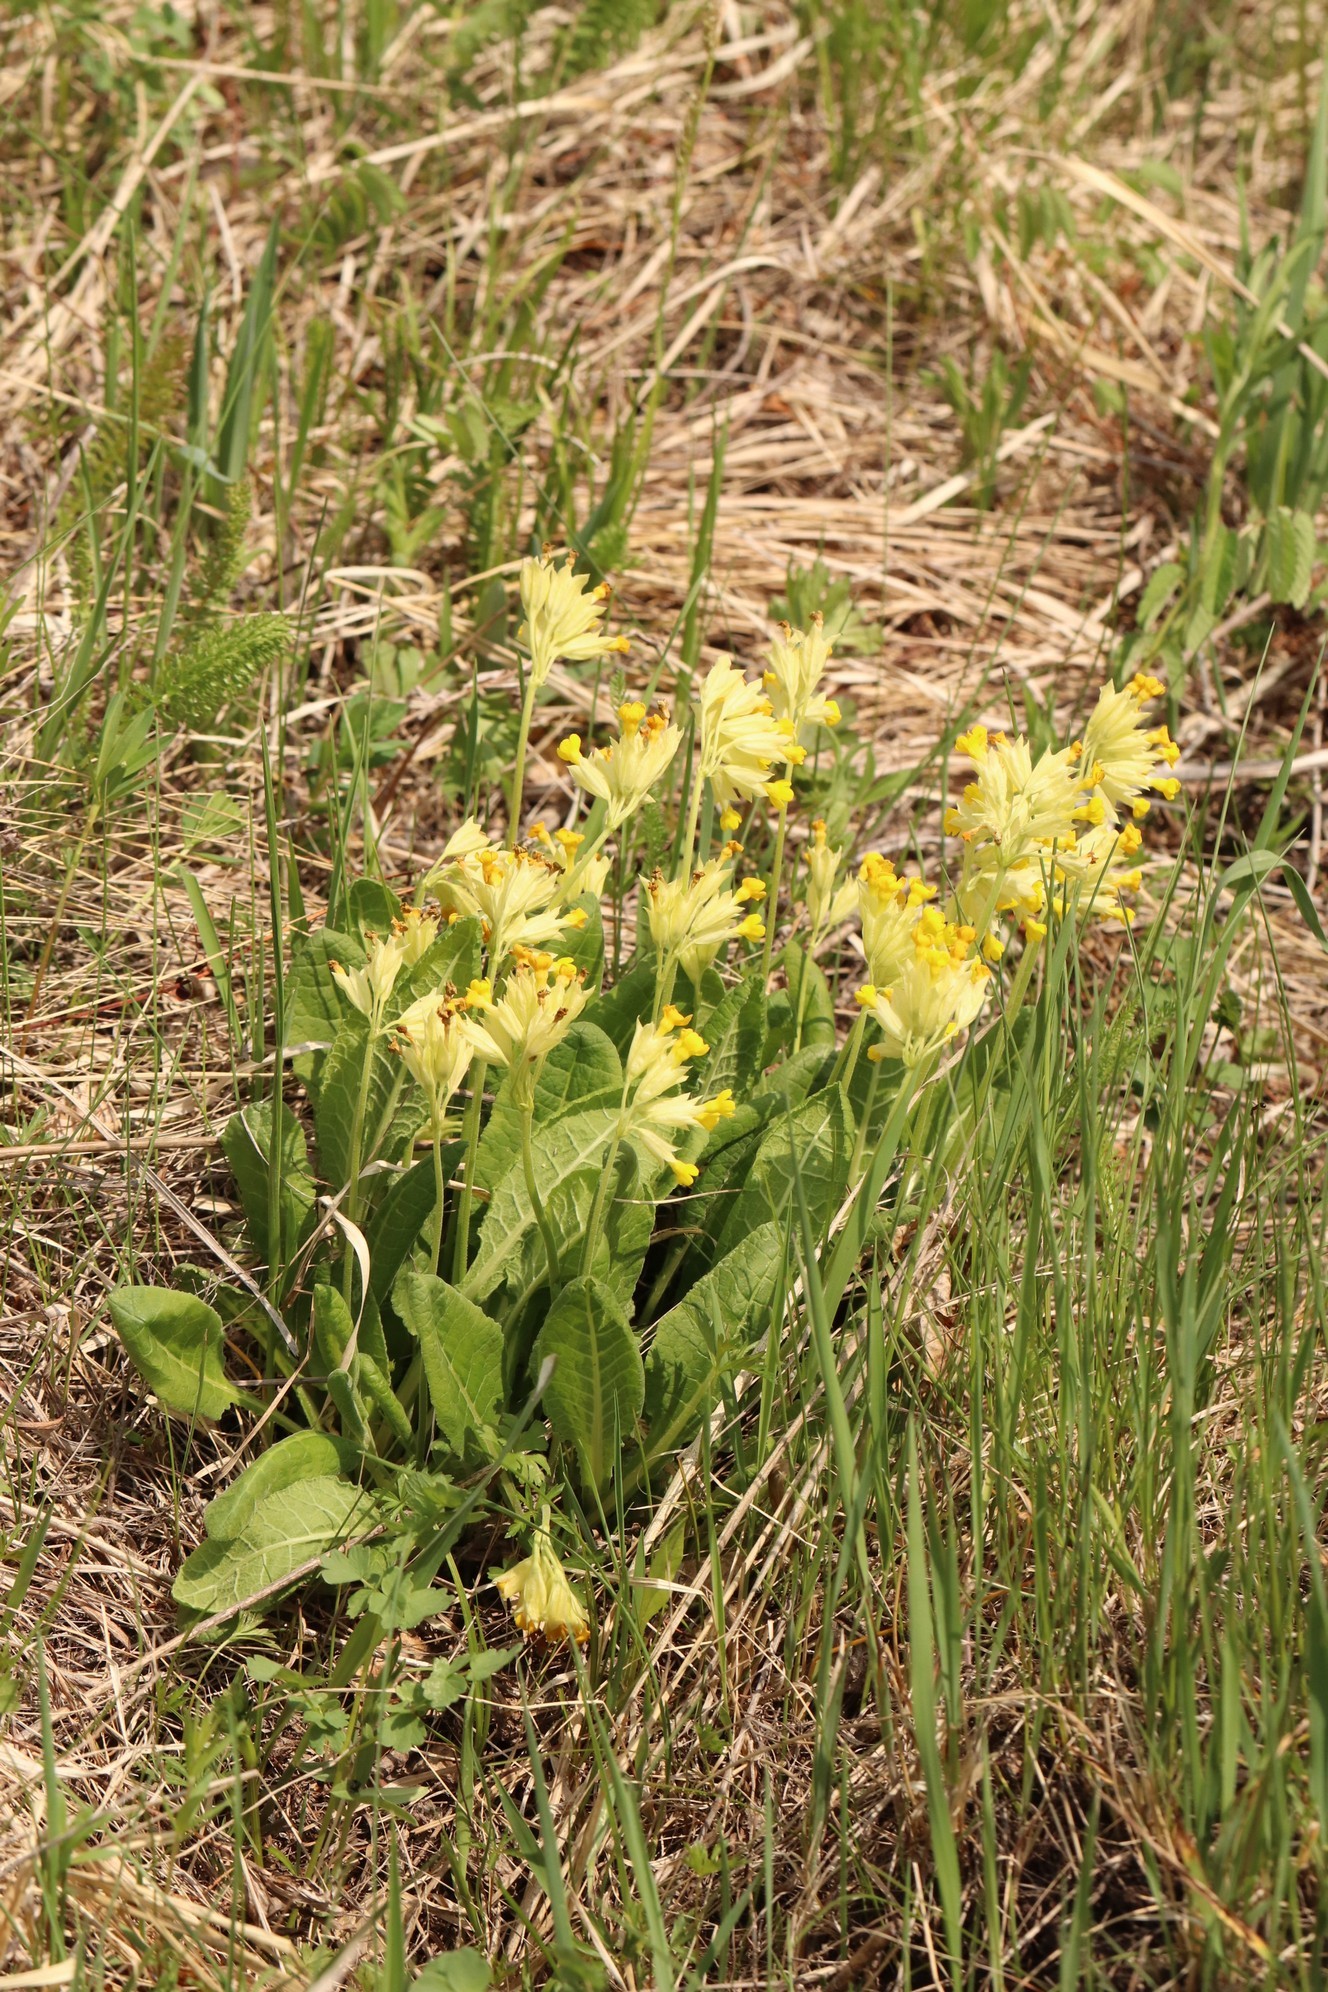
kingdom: Plantae
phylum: Tracheophyta
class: Magnoliopsida
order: Ericales
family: Primulaceae
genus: Primula
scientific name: Primula veris
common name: Cowslip
